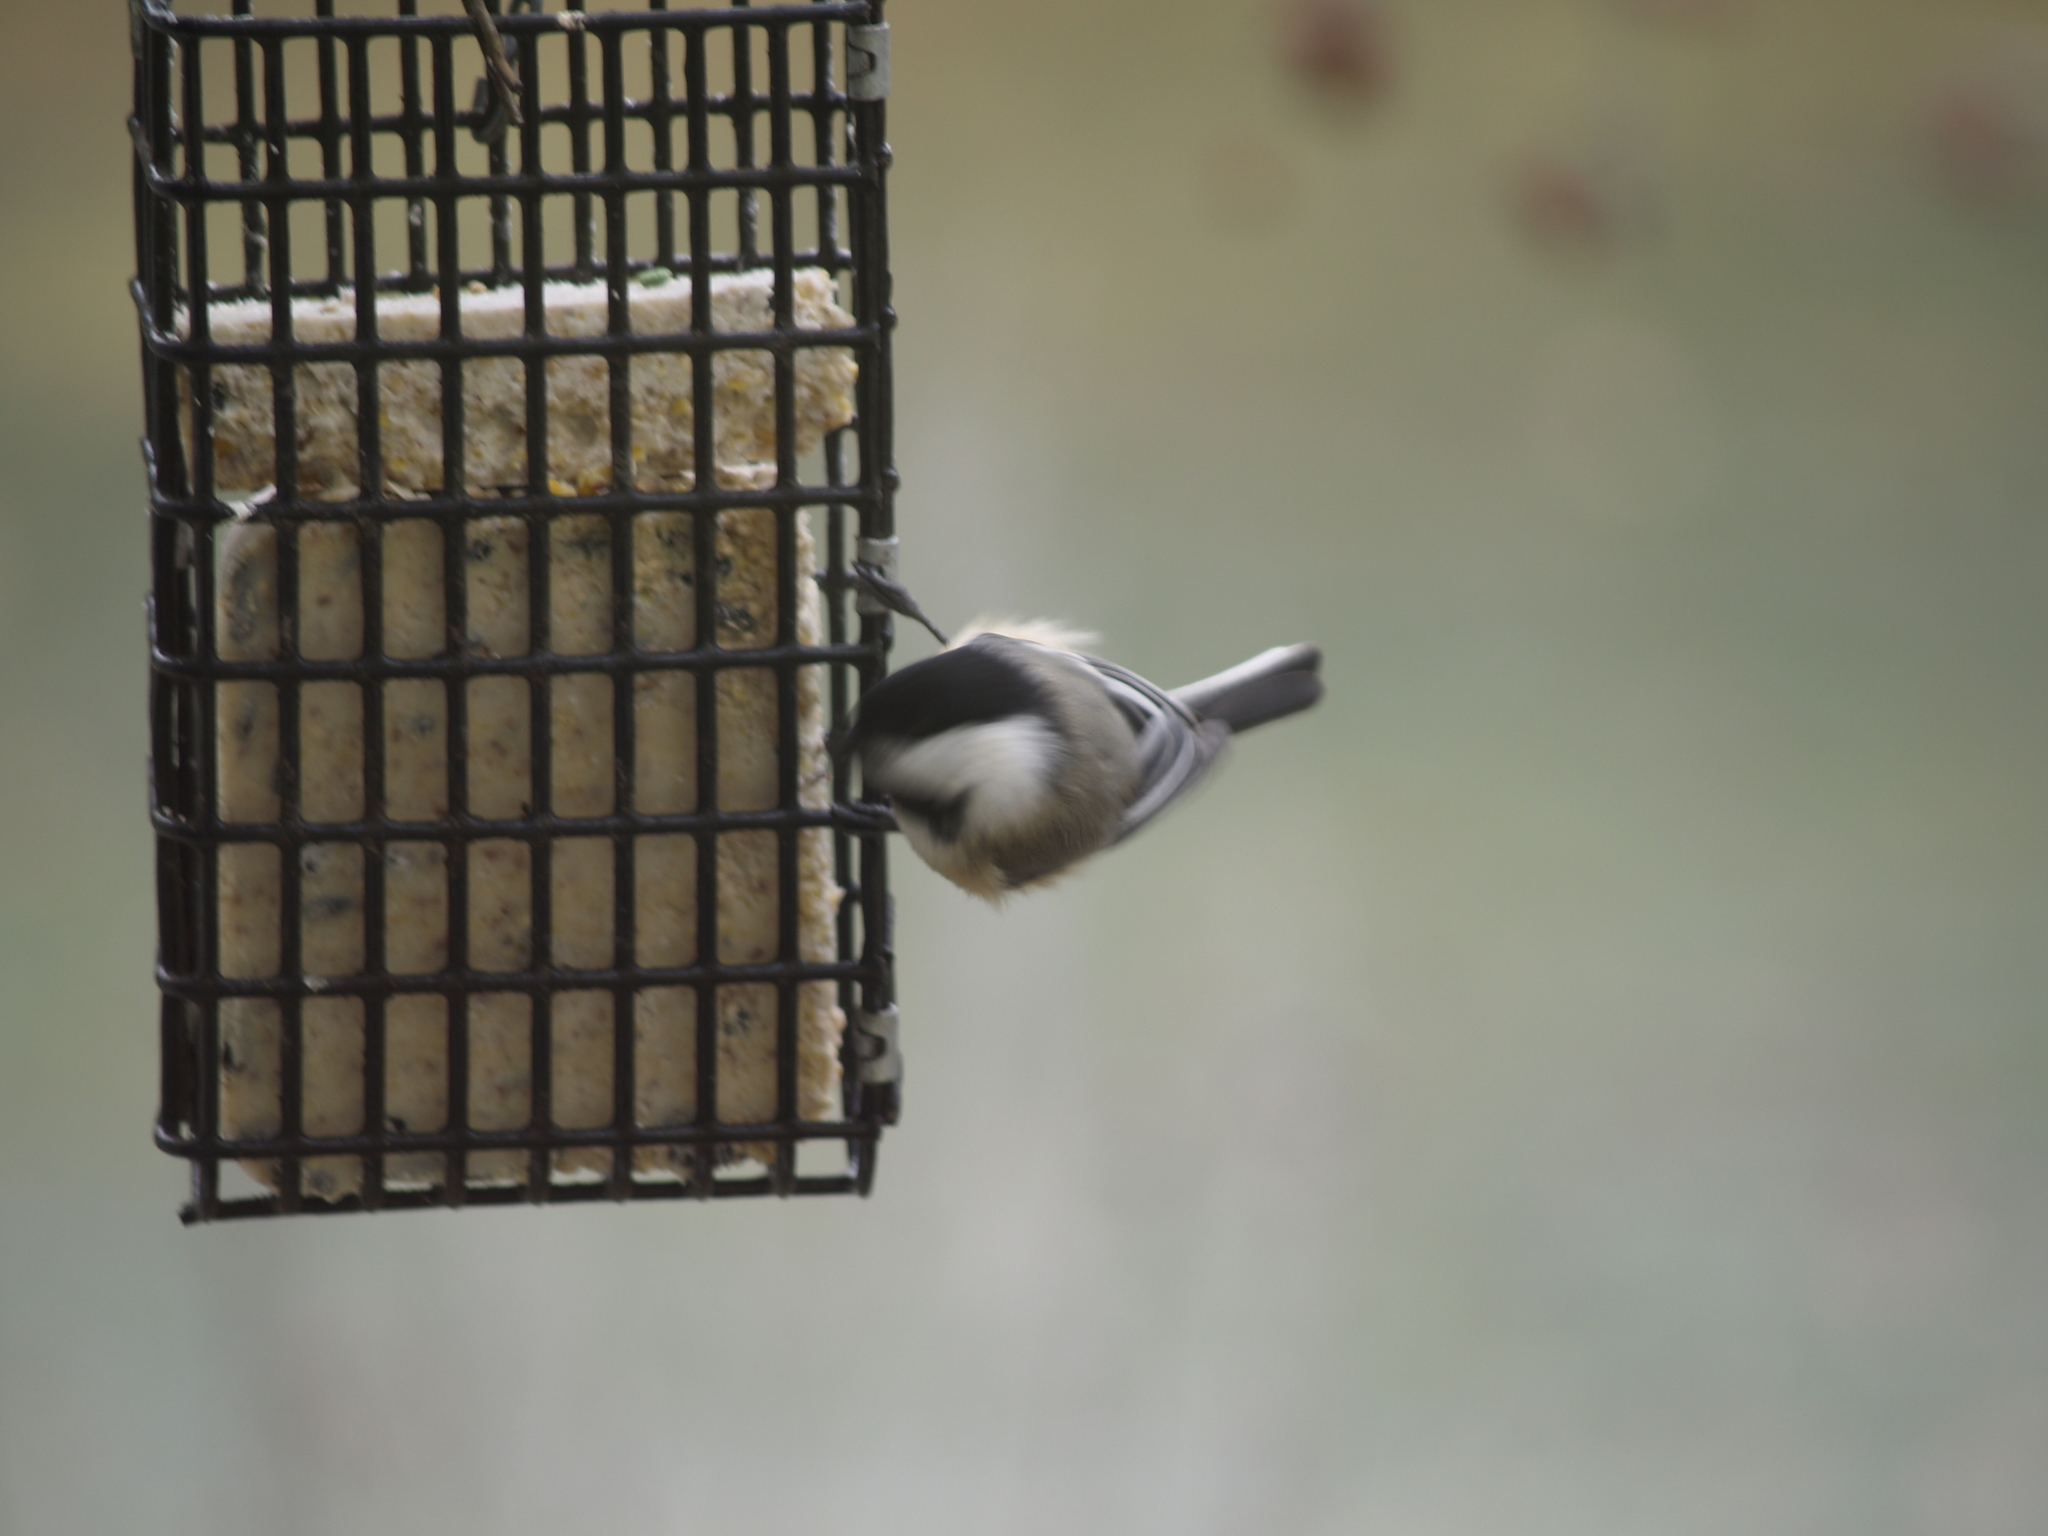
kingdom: Animalia
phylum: Chordata
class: Aves
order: Passeriformes
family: Paridae
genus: Poecile
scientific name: Poecile atricapillus
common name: Black-capped chickadee
